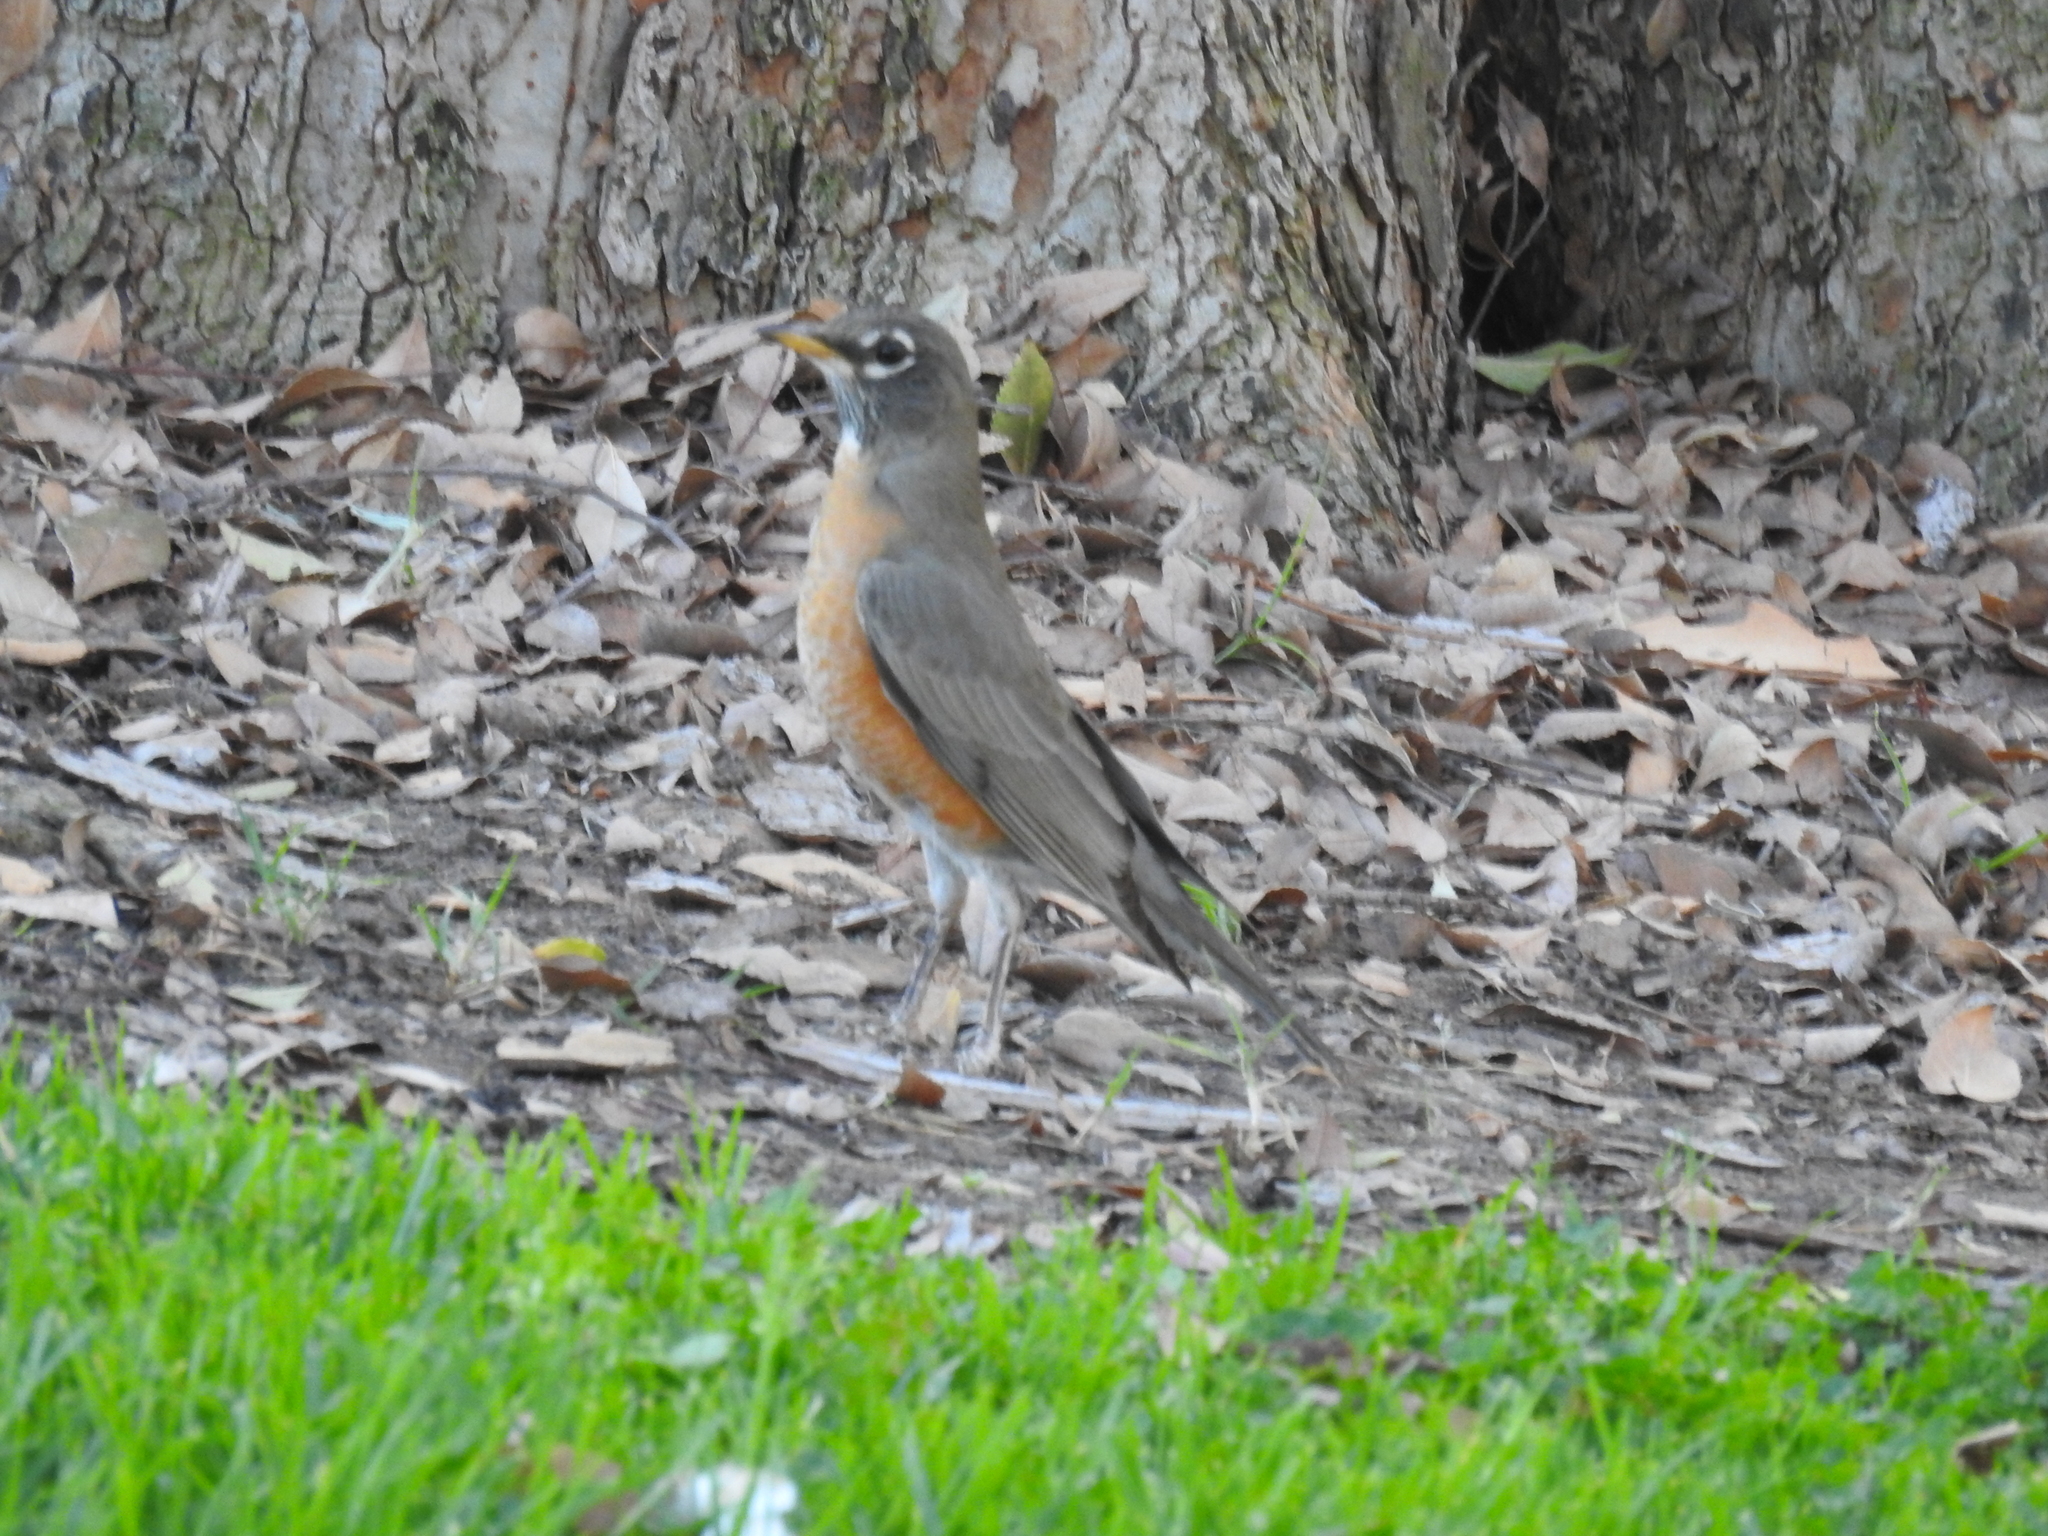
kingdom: Animalia
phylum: Chordata
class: Aves
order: Passeriformes
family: Turdidae
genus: Turdus
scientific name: Turdus migratorius
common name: American robin
